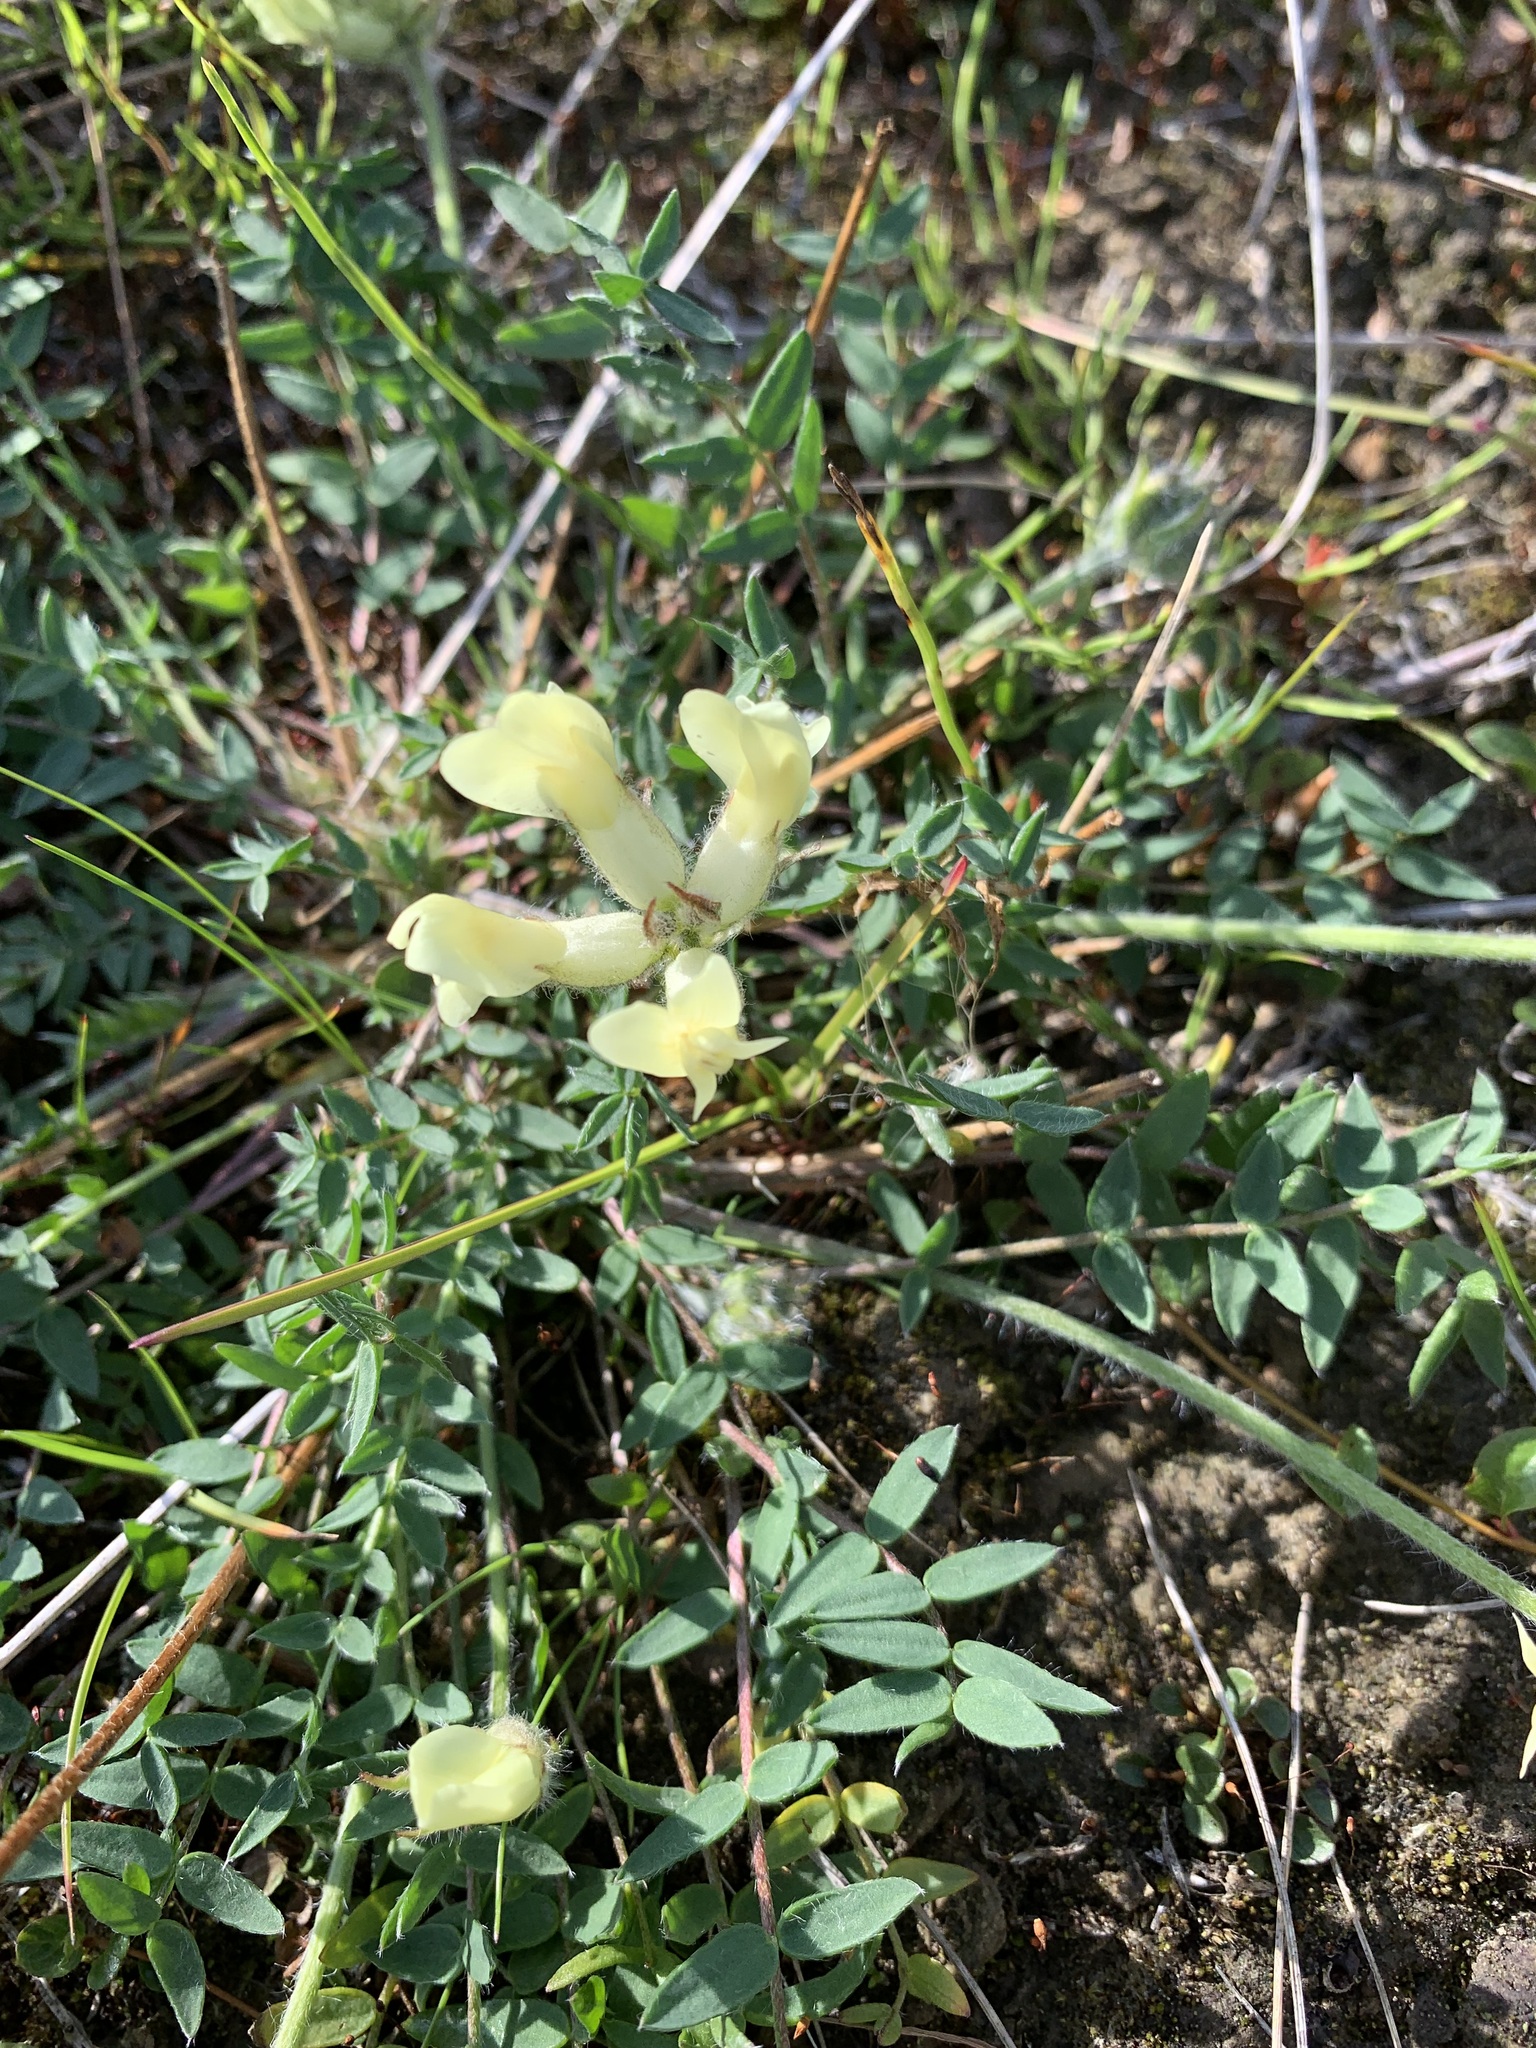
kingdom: Plantae
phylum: Tracheophyta
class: Magnoliopsida
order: Fabales
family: Fabaceae
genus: Oxytropis
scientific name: Oxytropis sordida
